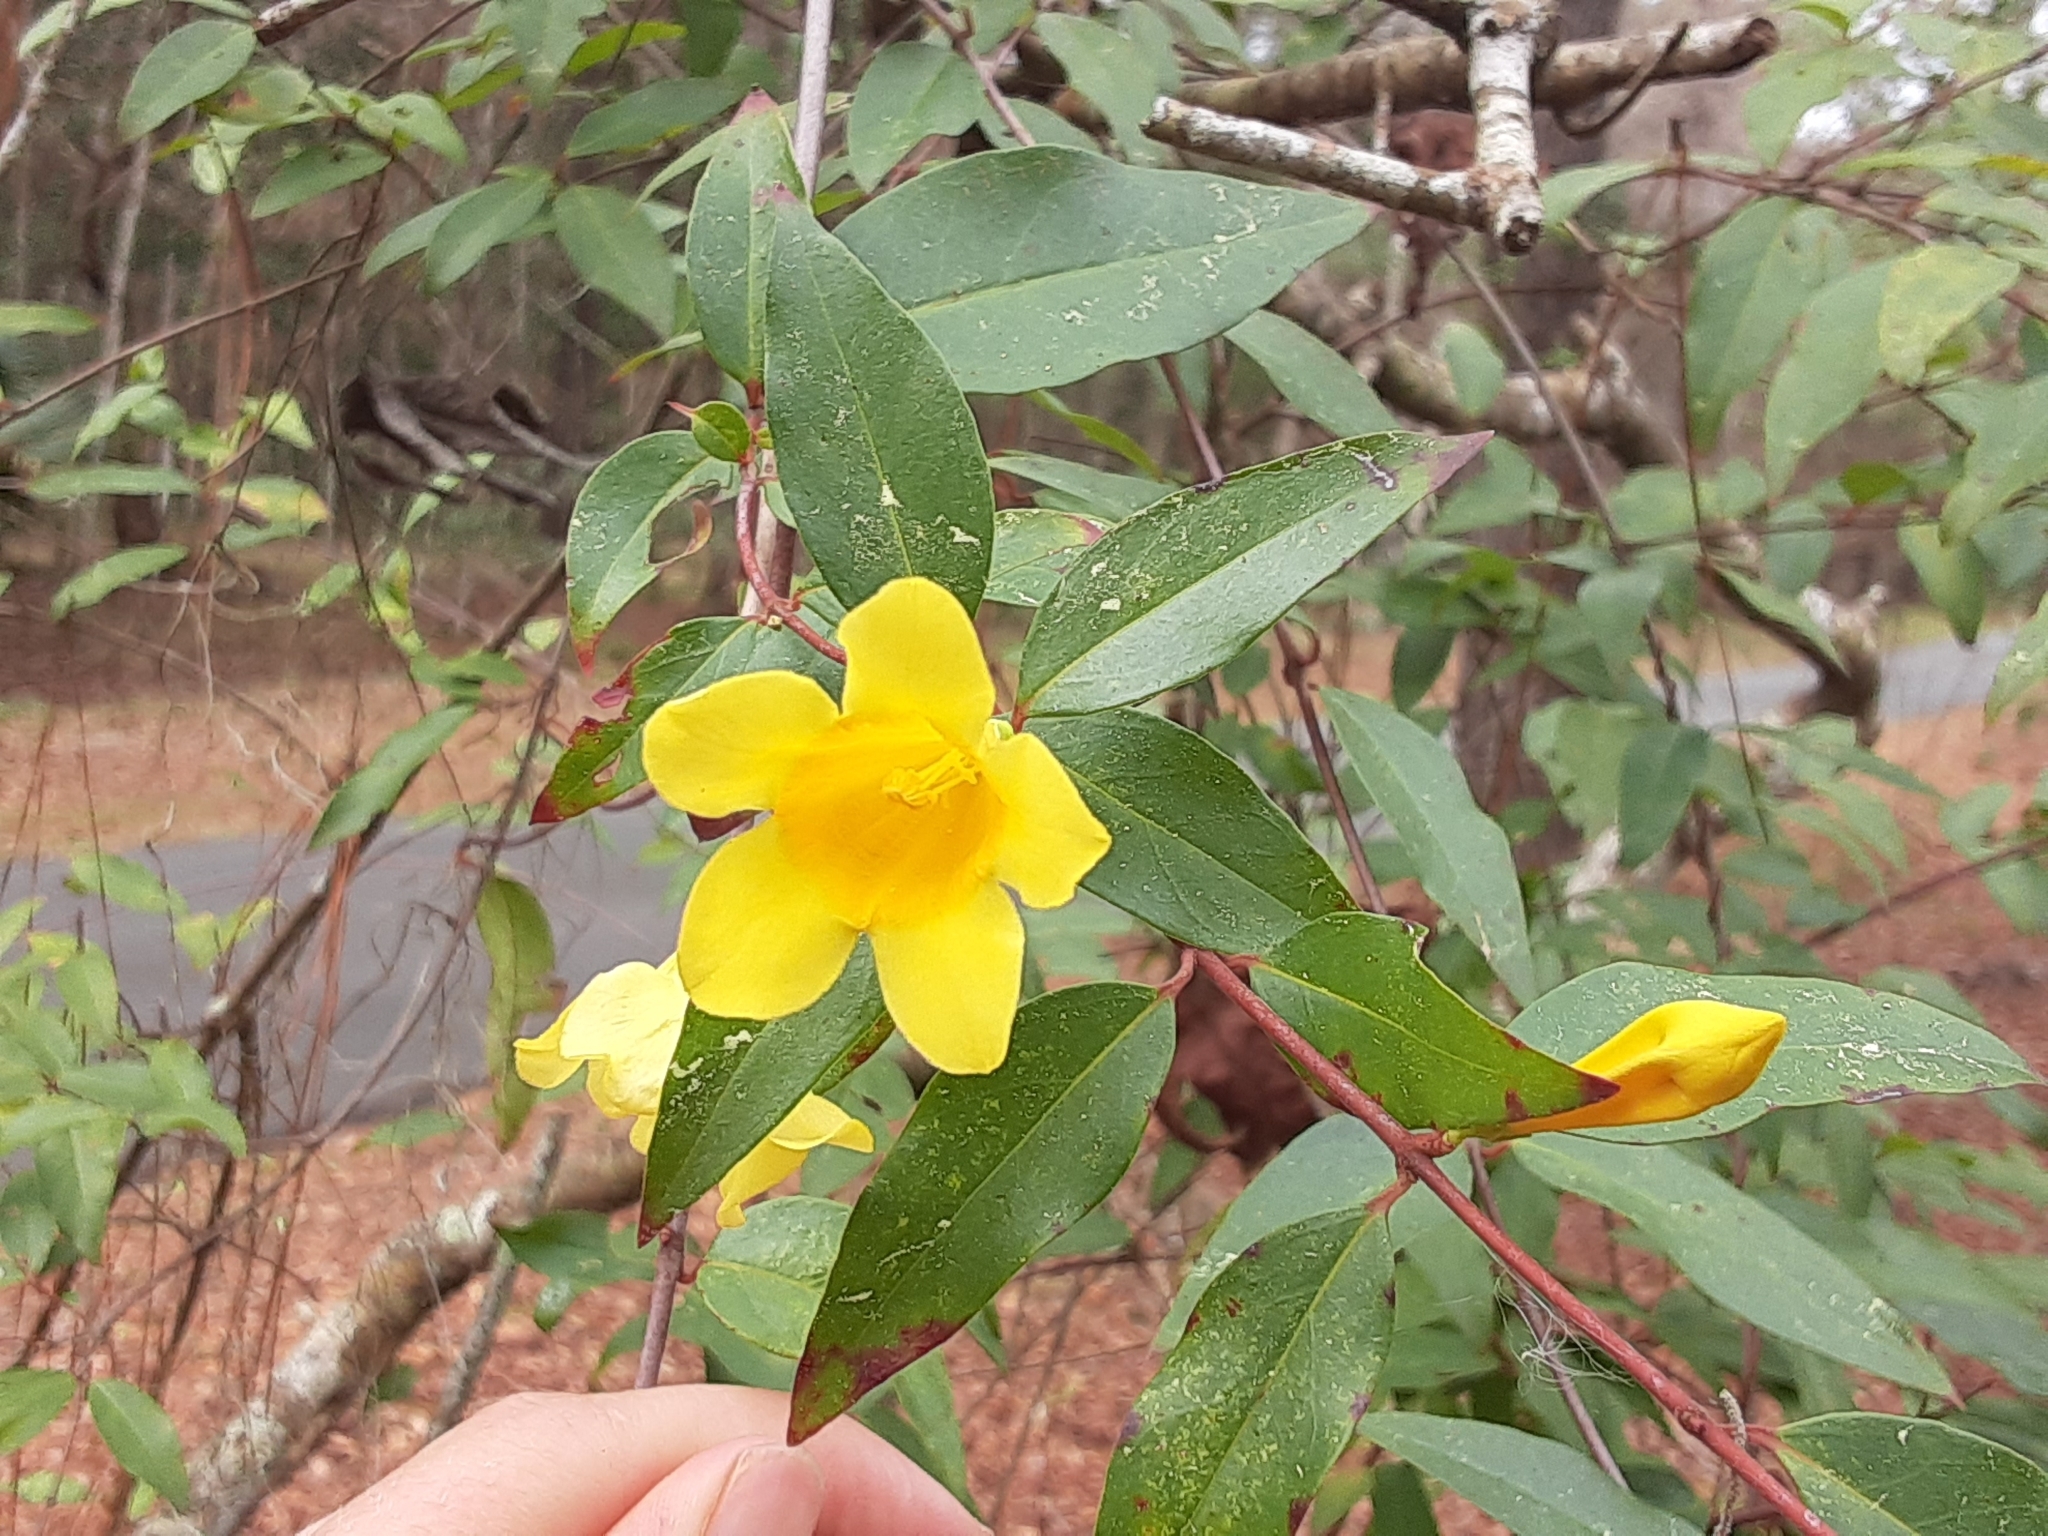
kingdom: Plantae
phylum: Tracheophyta
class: Magnoliopsida
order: Gentianales
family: Gelsemiaceae
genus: Gelsemium
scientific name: Gelsemium sempervirens
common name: Carolina-jasmine
